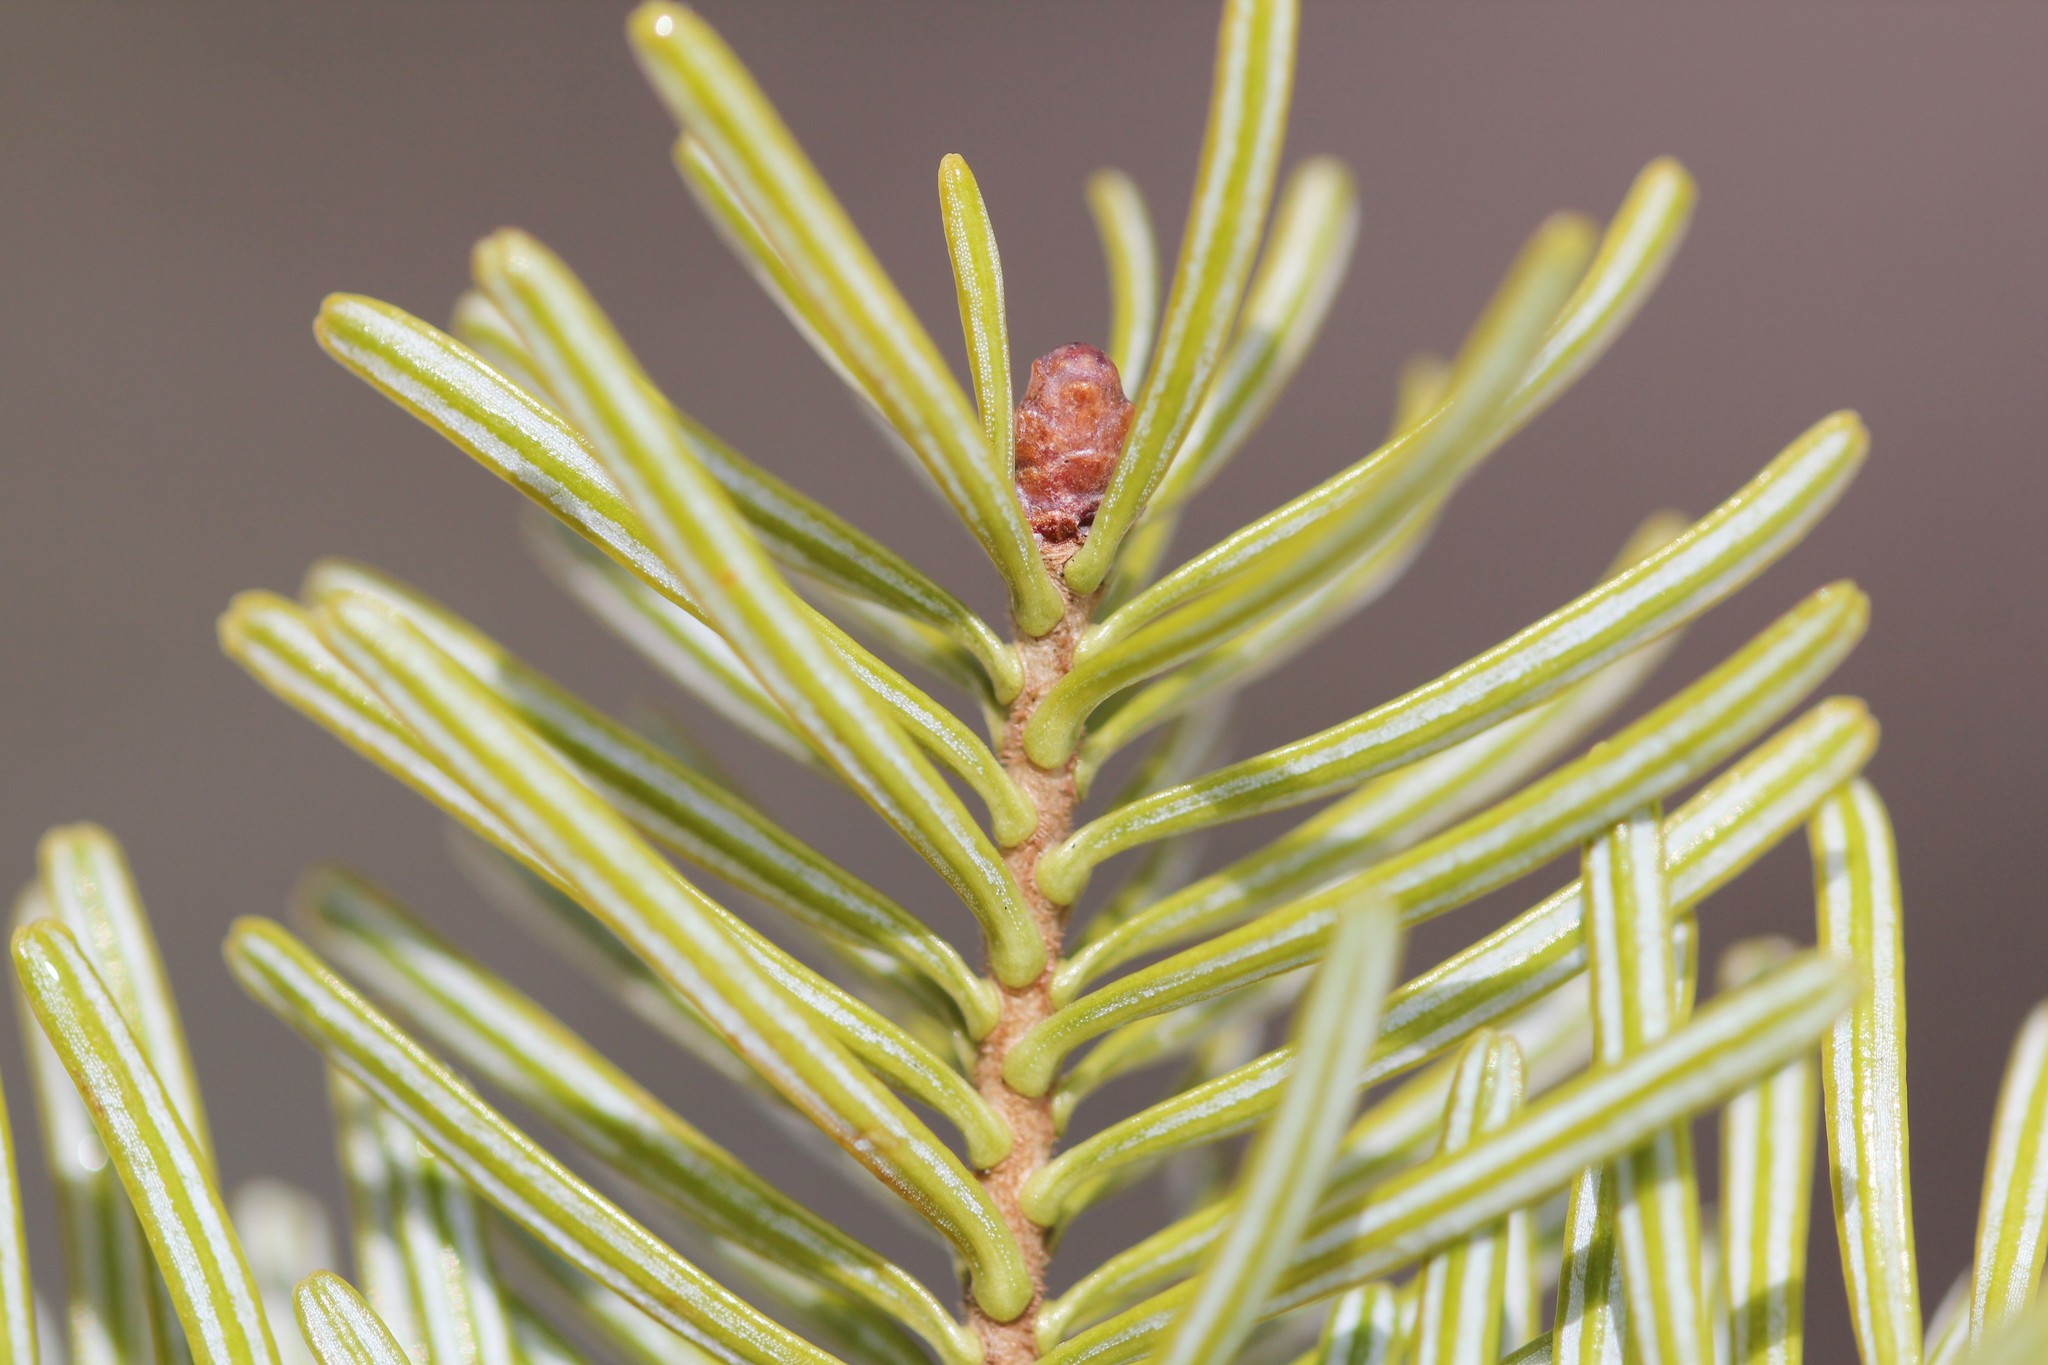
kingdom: Plantae
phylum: Tracheophyta
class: Pinopsida
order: Pinales
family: Pinaceae
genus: Abies
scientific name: Abies balsamea
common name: Balsam fir
